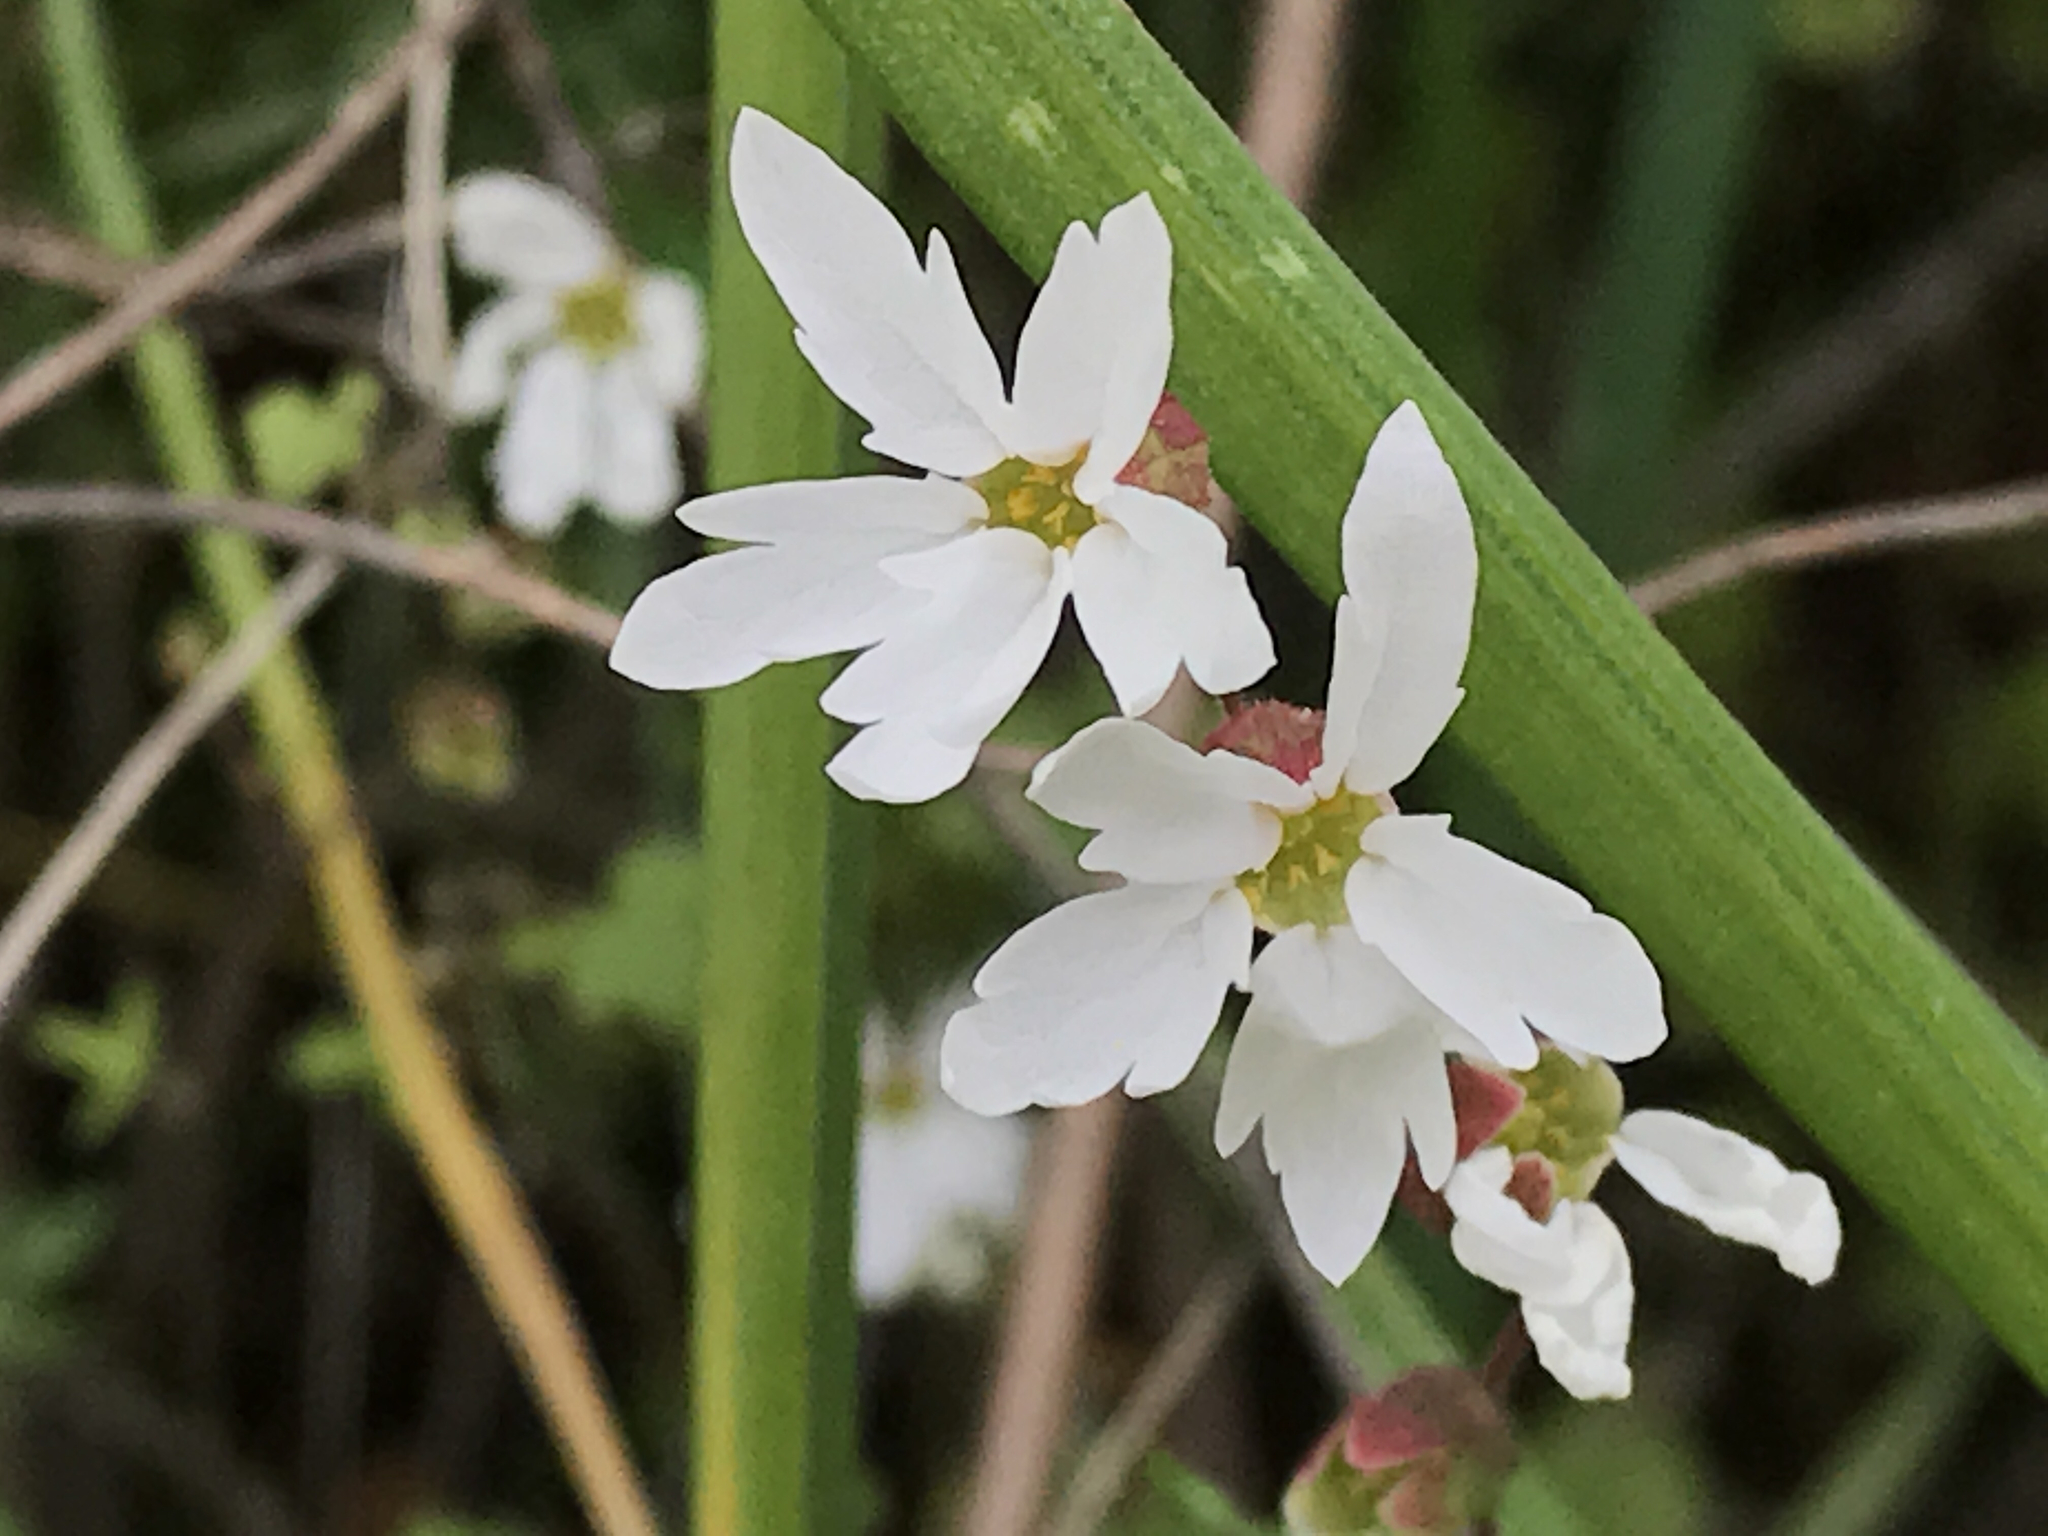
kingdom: Plantae
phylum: Tracheophyta
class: Magnoliopsida
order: Saxifragales
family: Saxifragaceae
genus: Lithophragma
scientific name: Lithophragma heterophyllum
